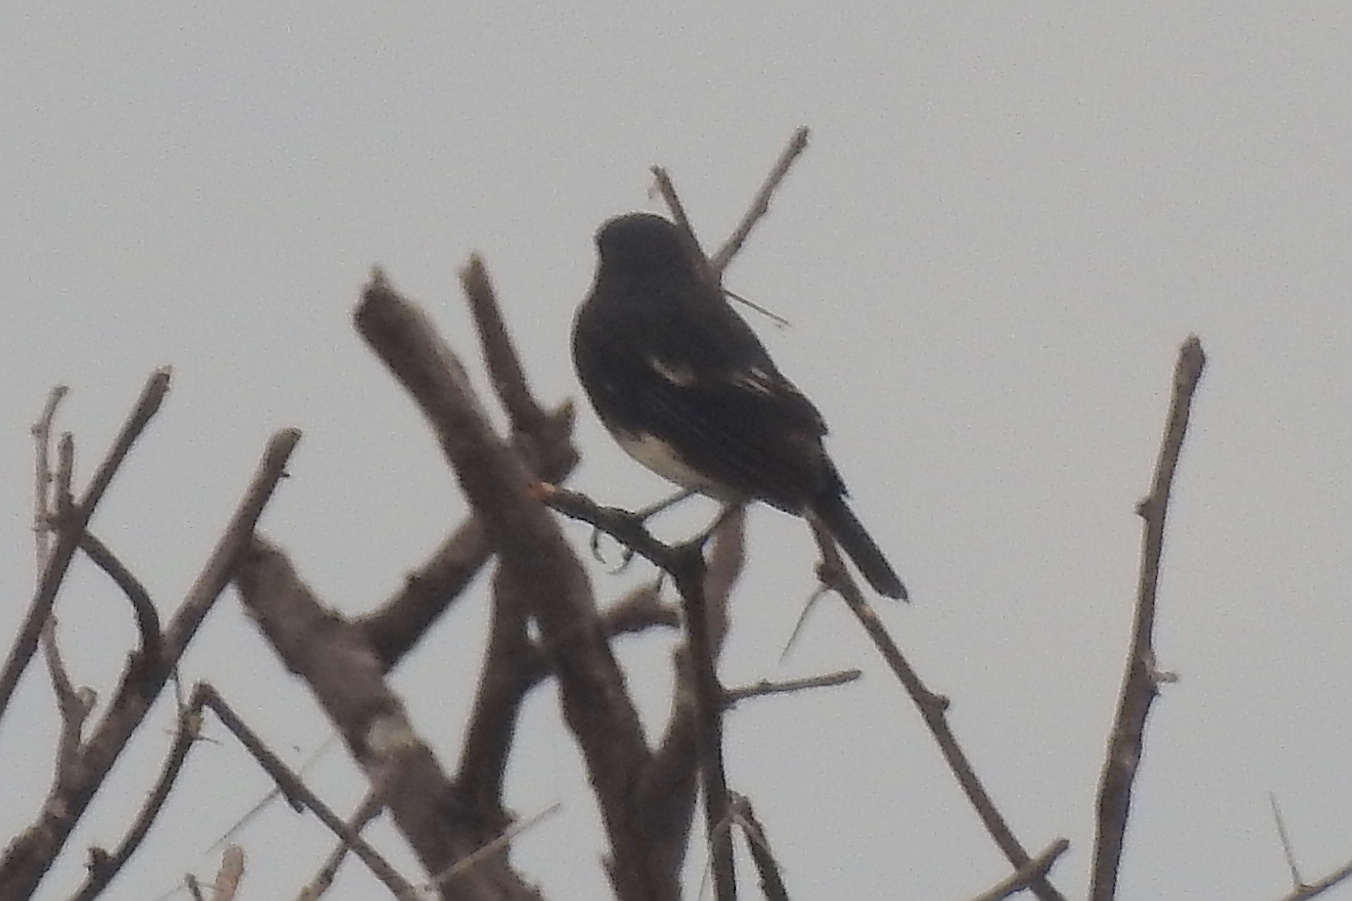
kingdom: Animalia
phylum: Chordata
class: Aves
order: Passeriformes
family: Muscicapidae
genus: Saxicola
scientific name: Saxicola caprata
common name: Pied bush chat
